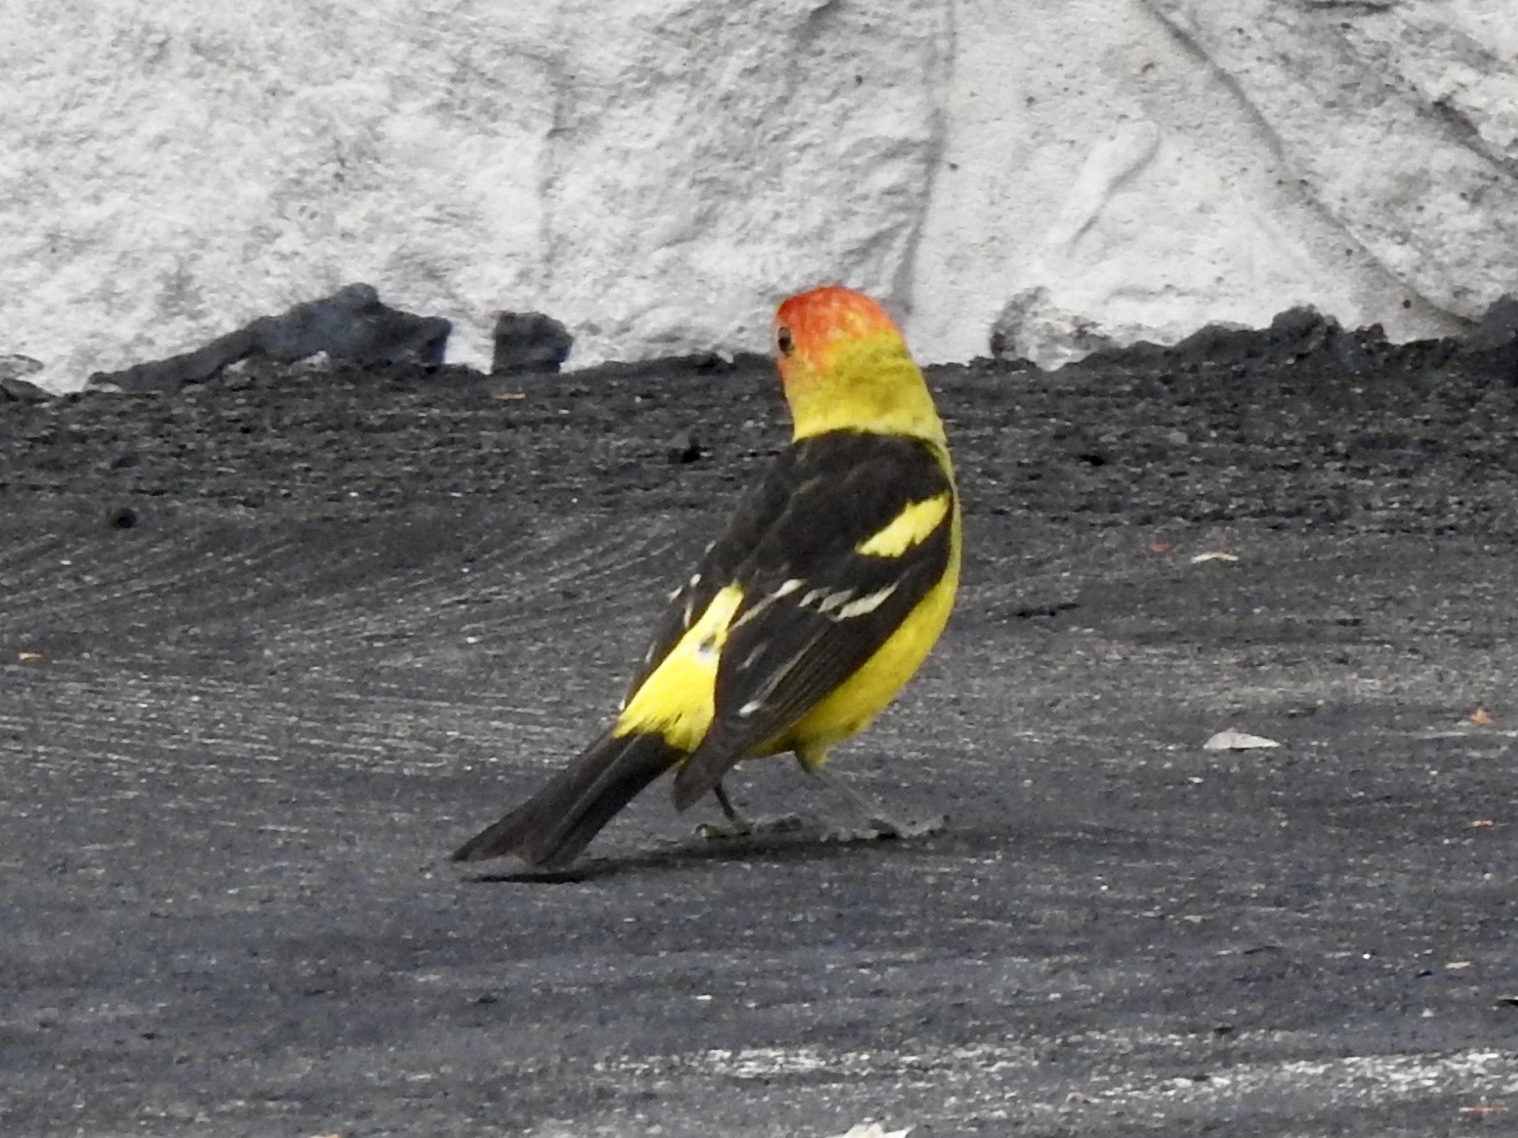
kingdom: Animalia
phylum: Chordata
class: Aves
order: Passeriformes
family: Cardinalidae
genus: Piranga
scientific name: Piranga ludoviciana
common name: Western tanager
